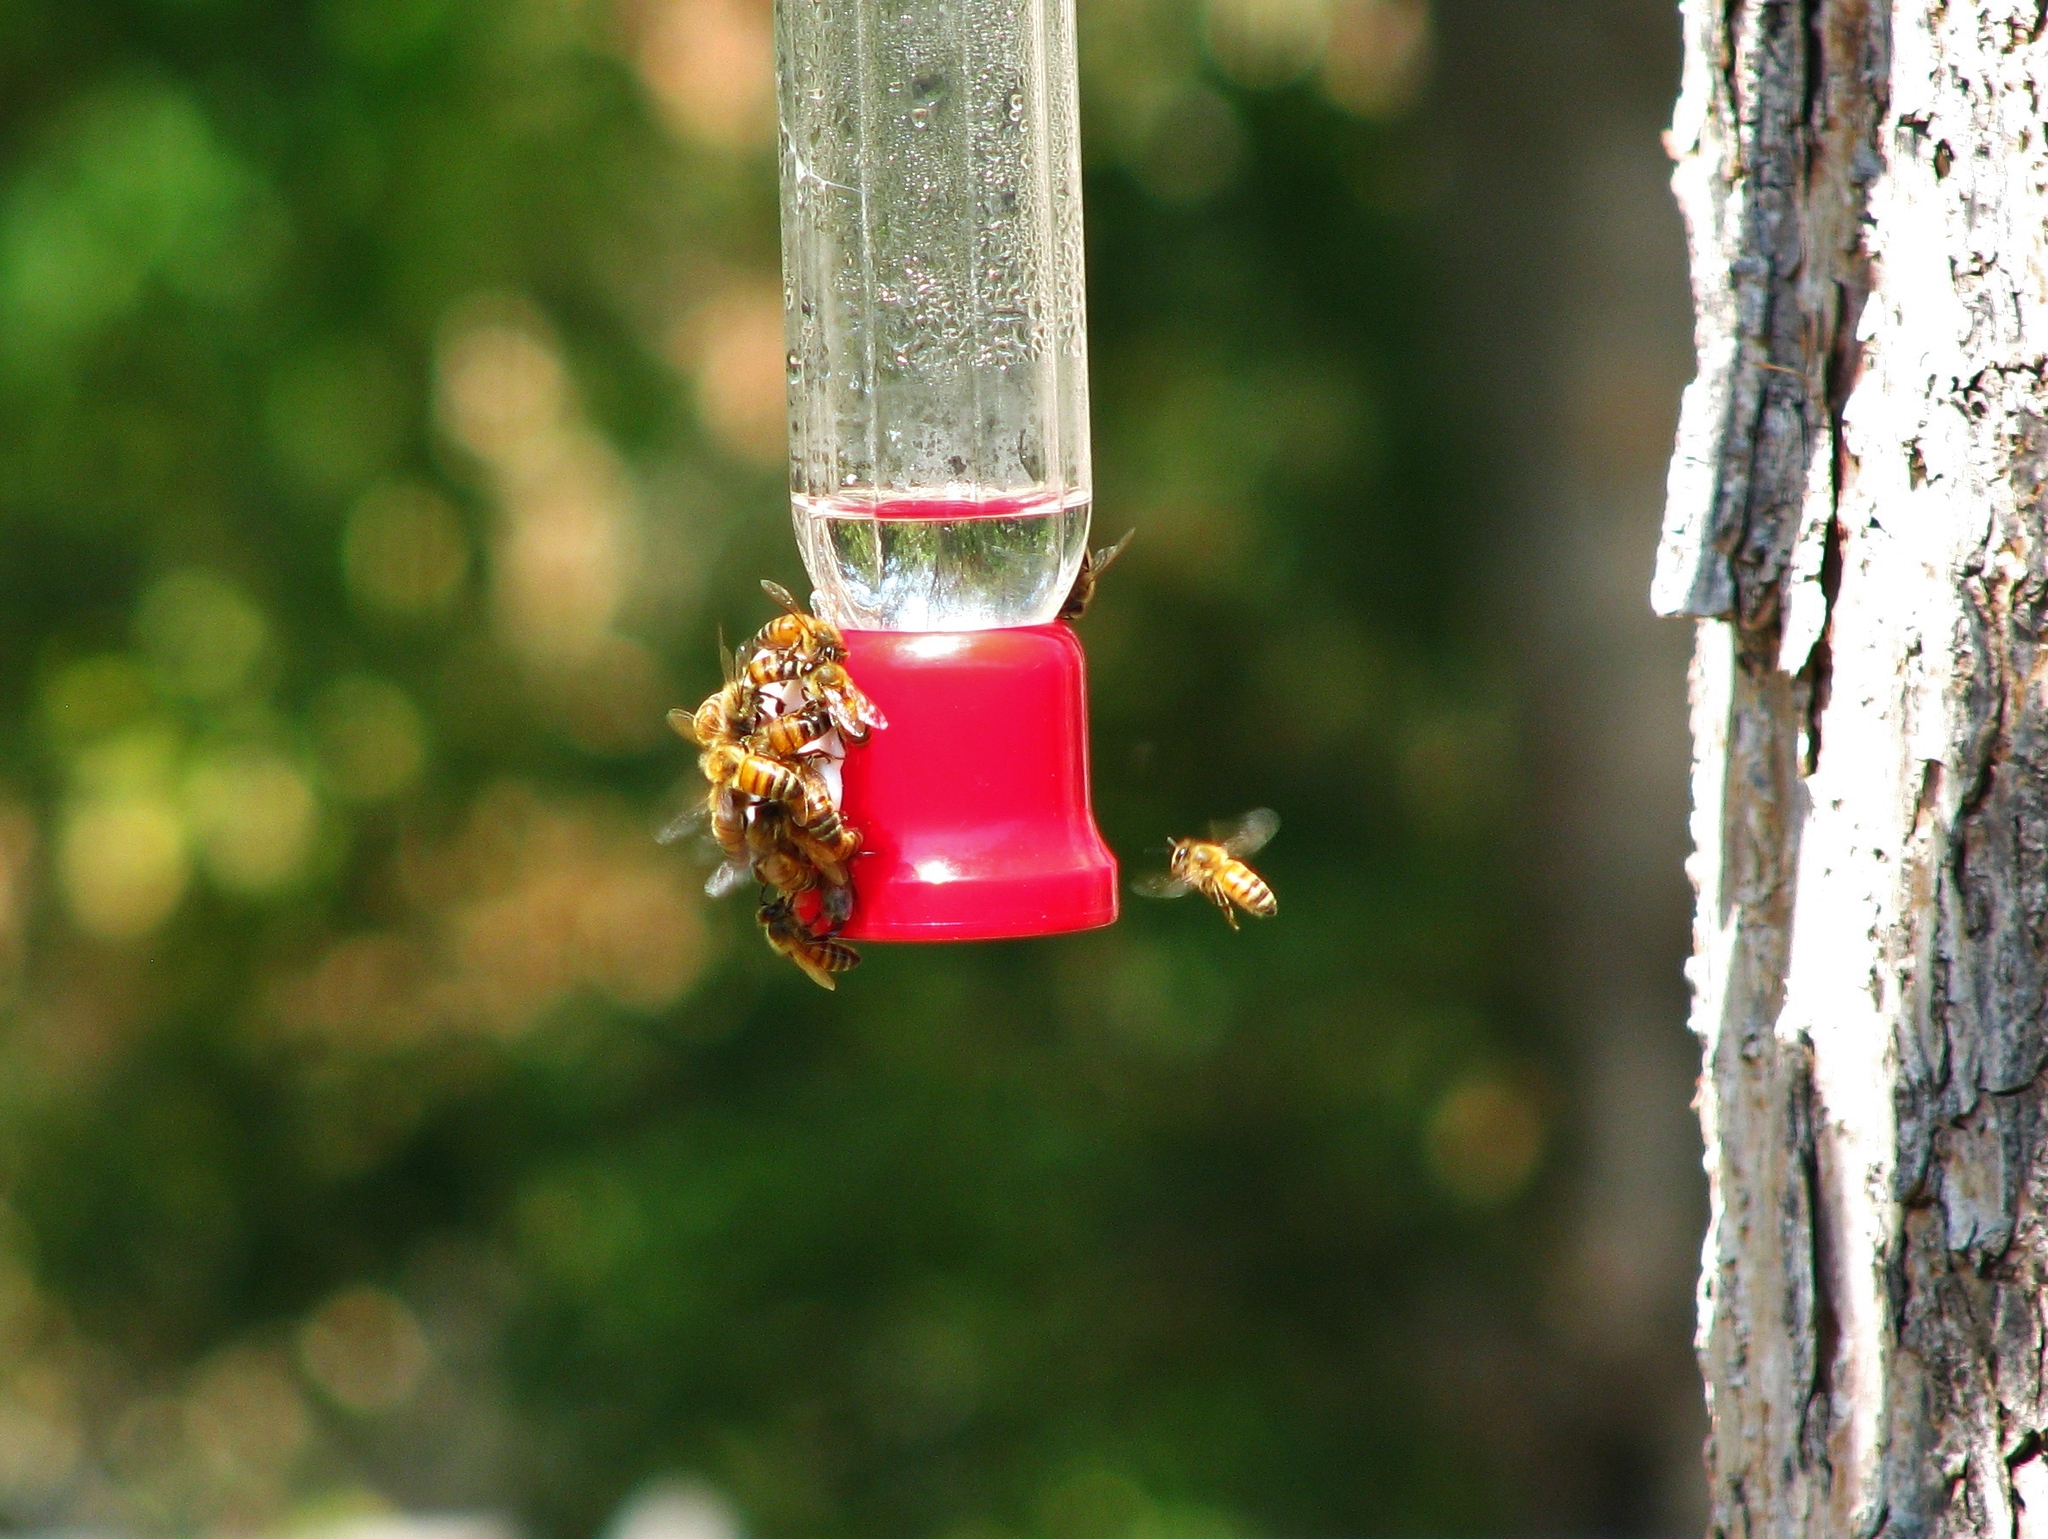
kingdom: Animalia
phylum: Arthropoda
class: Insecta
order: Hymenoptera
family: Apidae
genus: Apis
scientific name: Apis mellifera
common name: Honey bee
